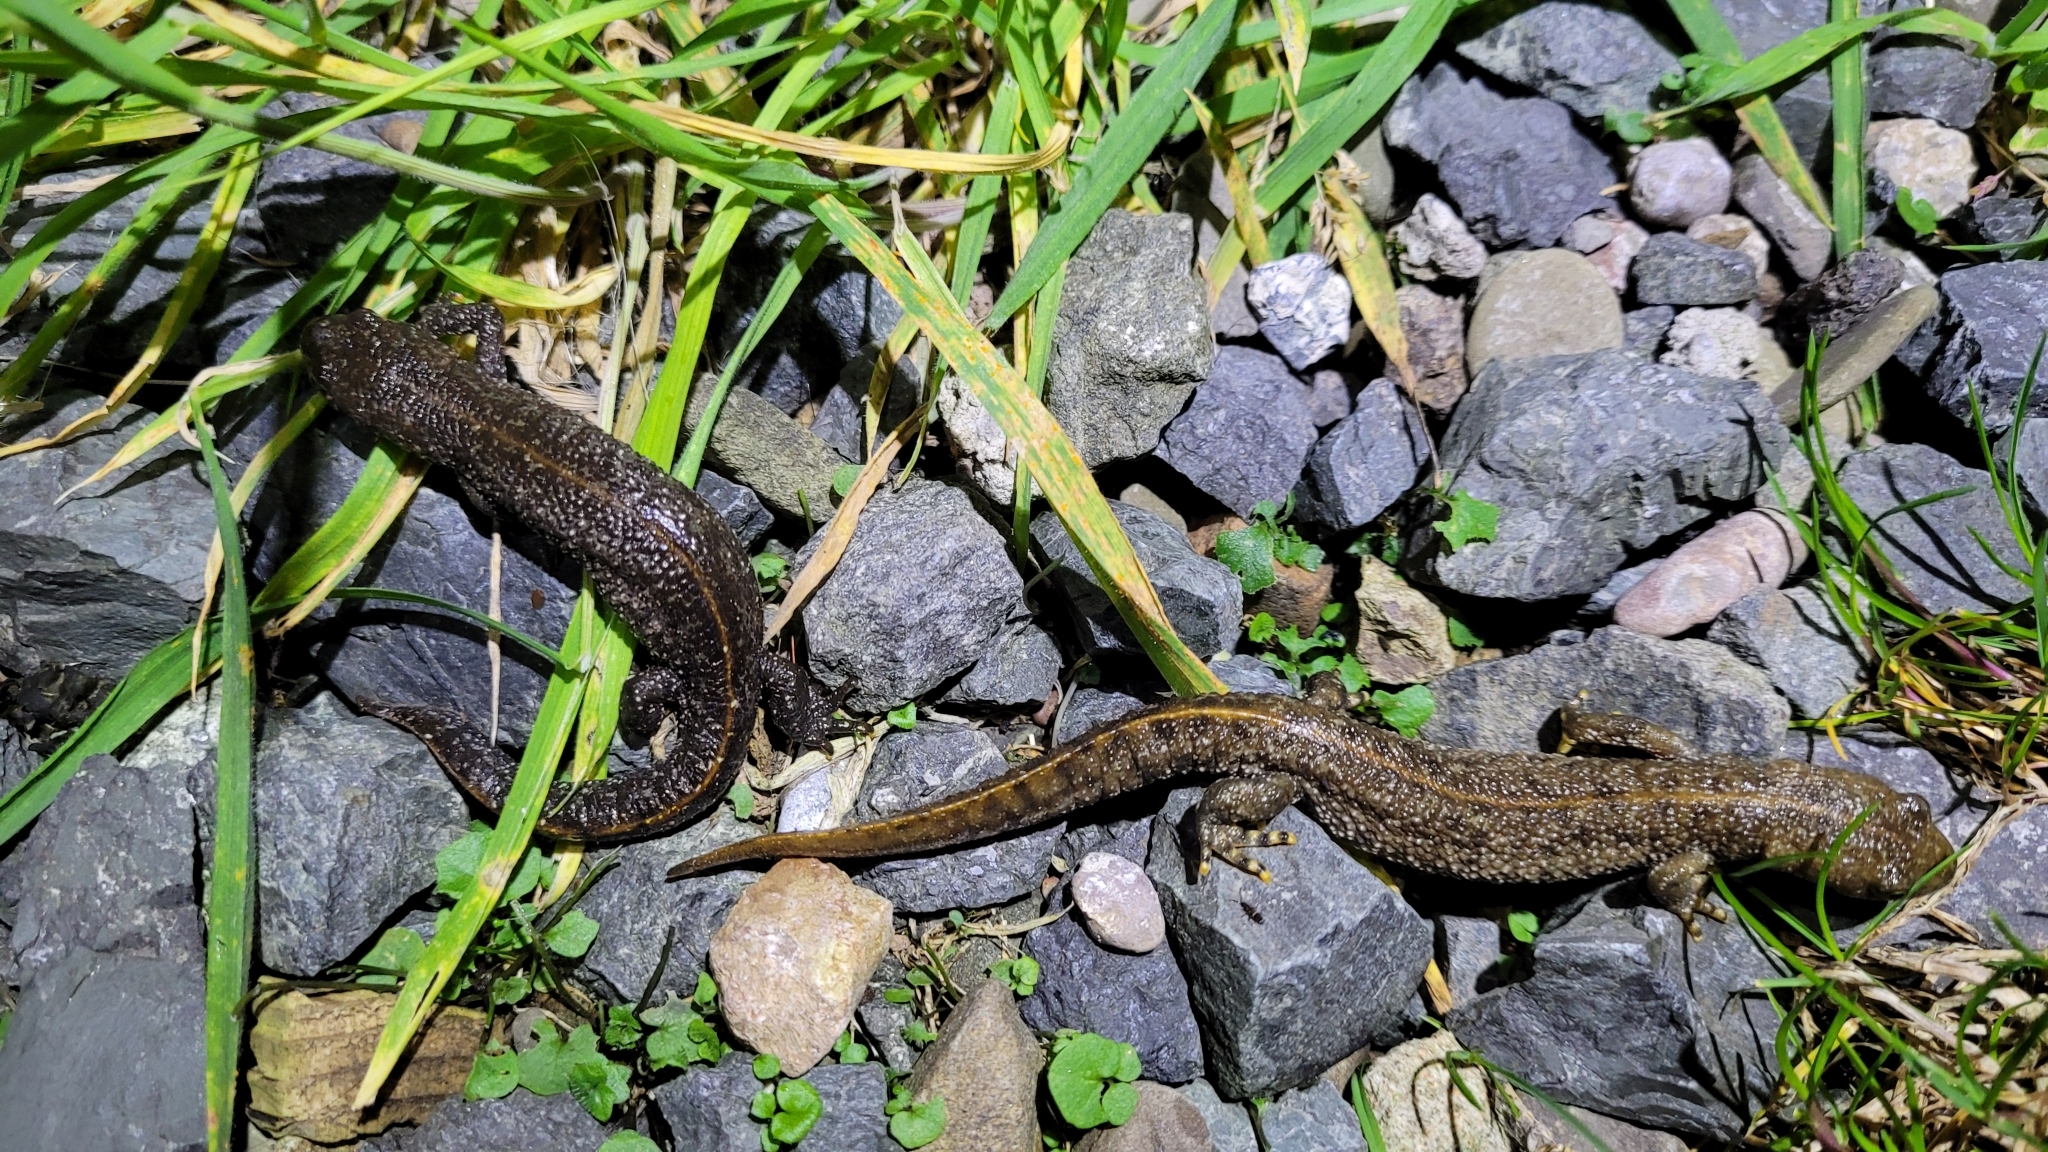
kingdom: Animalia
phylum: Chordata
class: Amphibia
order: Caudata
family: Salamandridae
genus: Triturus
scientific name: Triturus cristatus
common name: Crested newt
